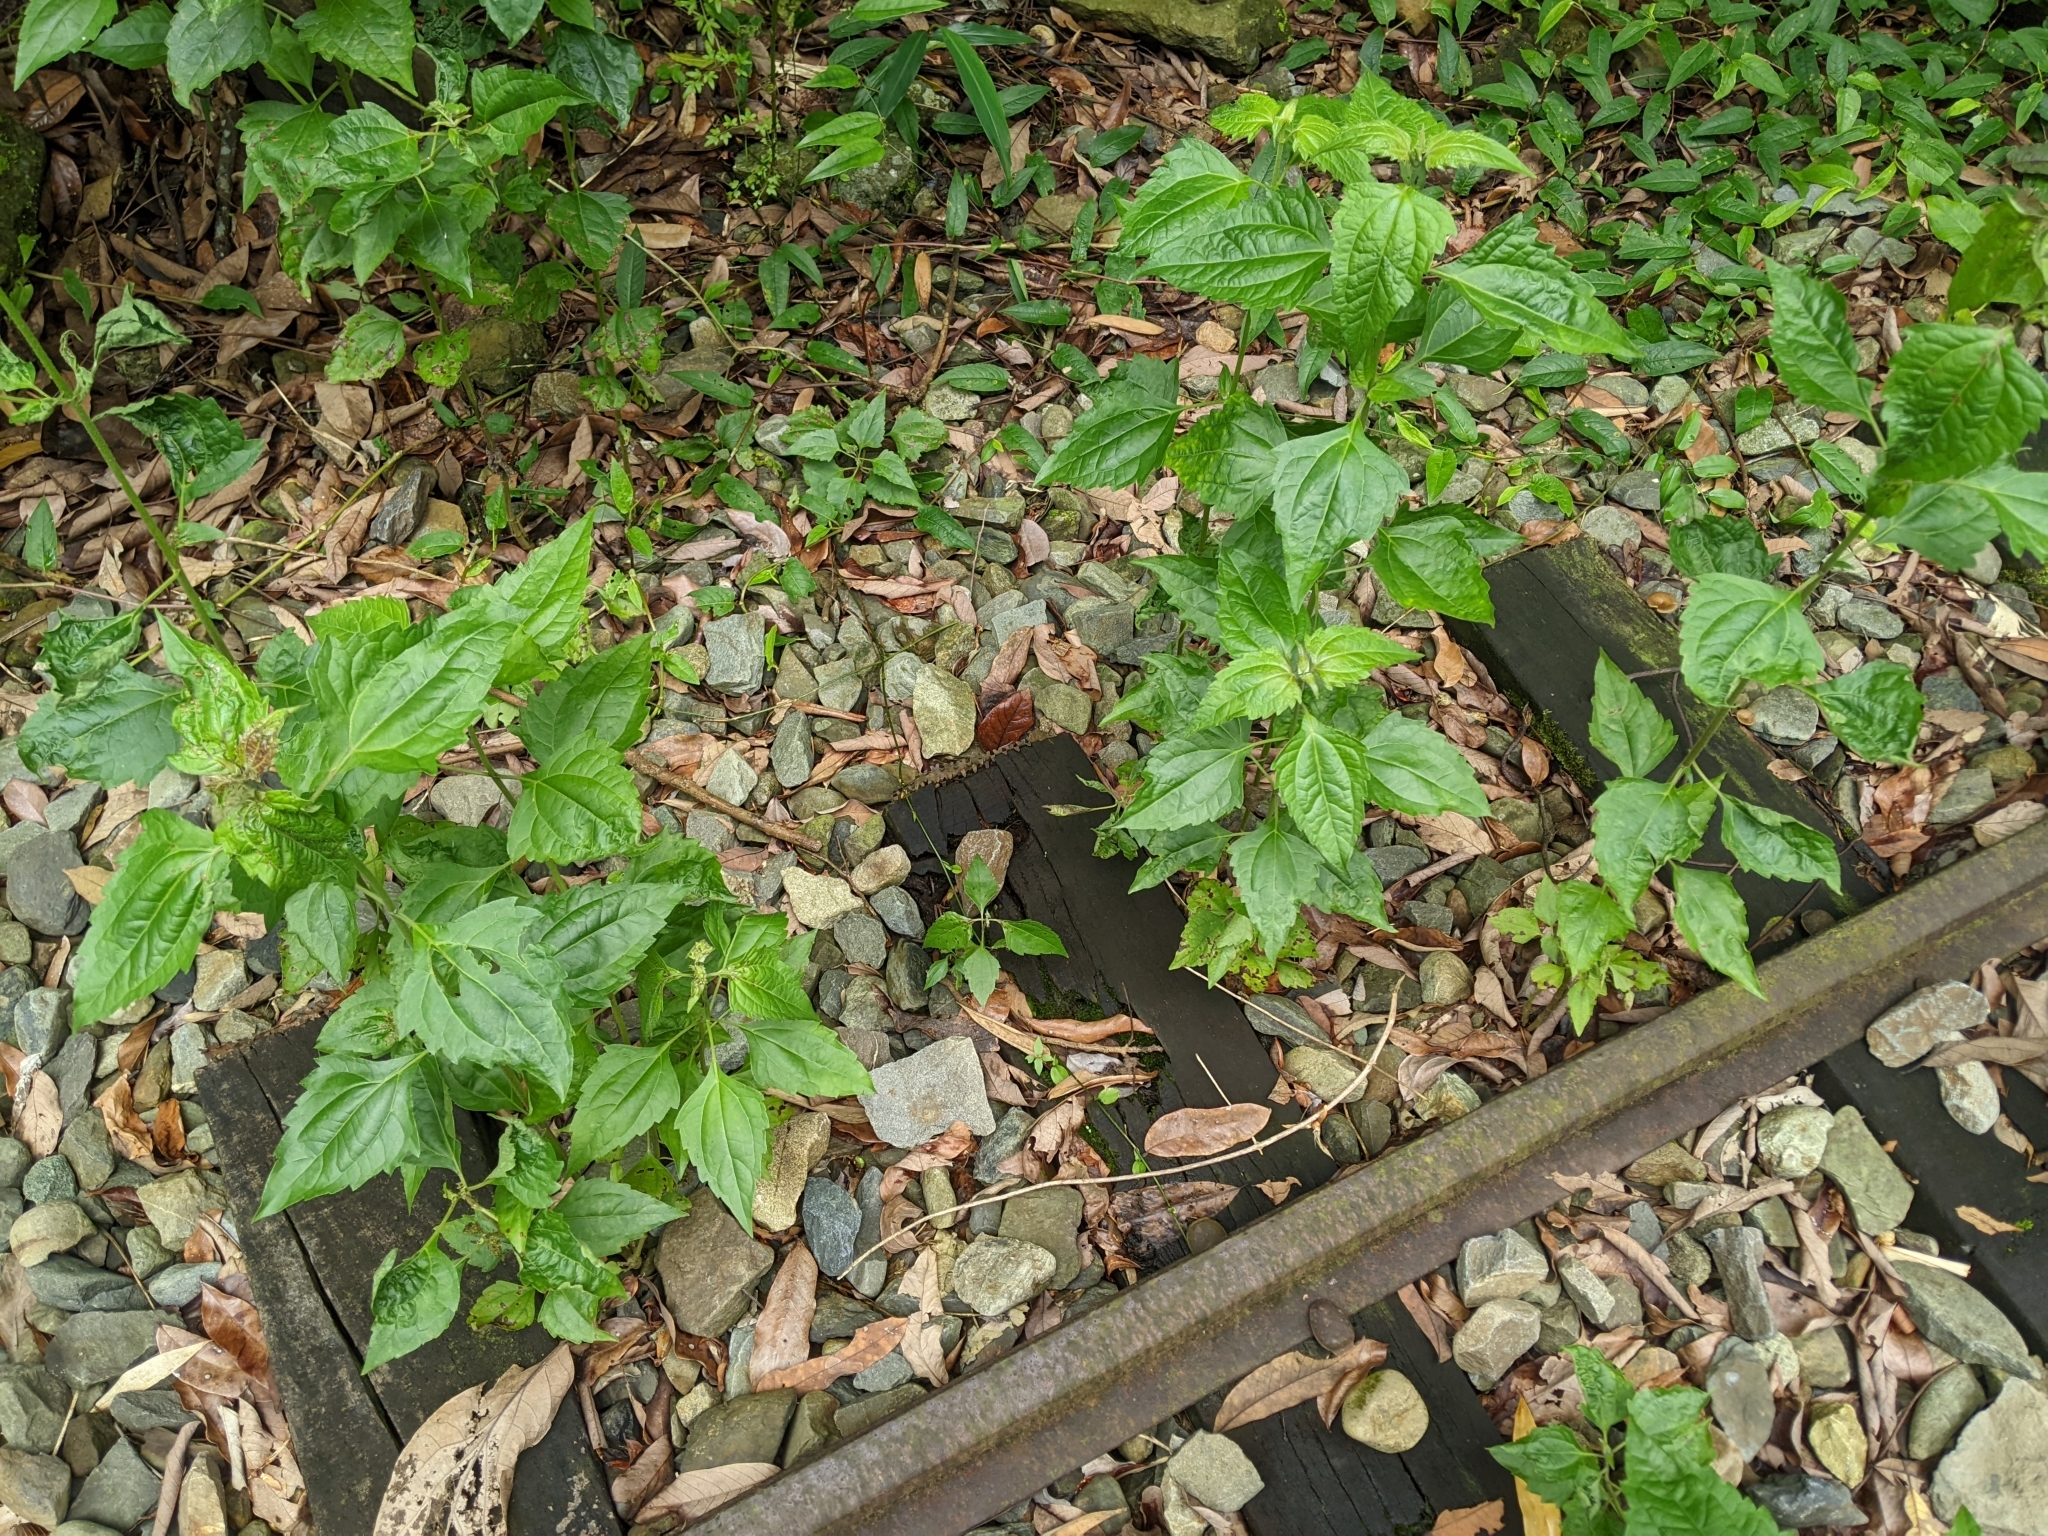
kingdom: Plantae
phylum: Tracheophyta
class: Magnoliopsida
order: Asterales
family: Asteraceae
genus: Chromolaena
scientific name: Chromolaena odorata
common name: Siamweed
